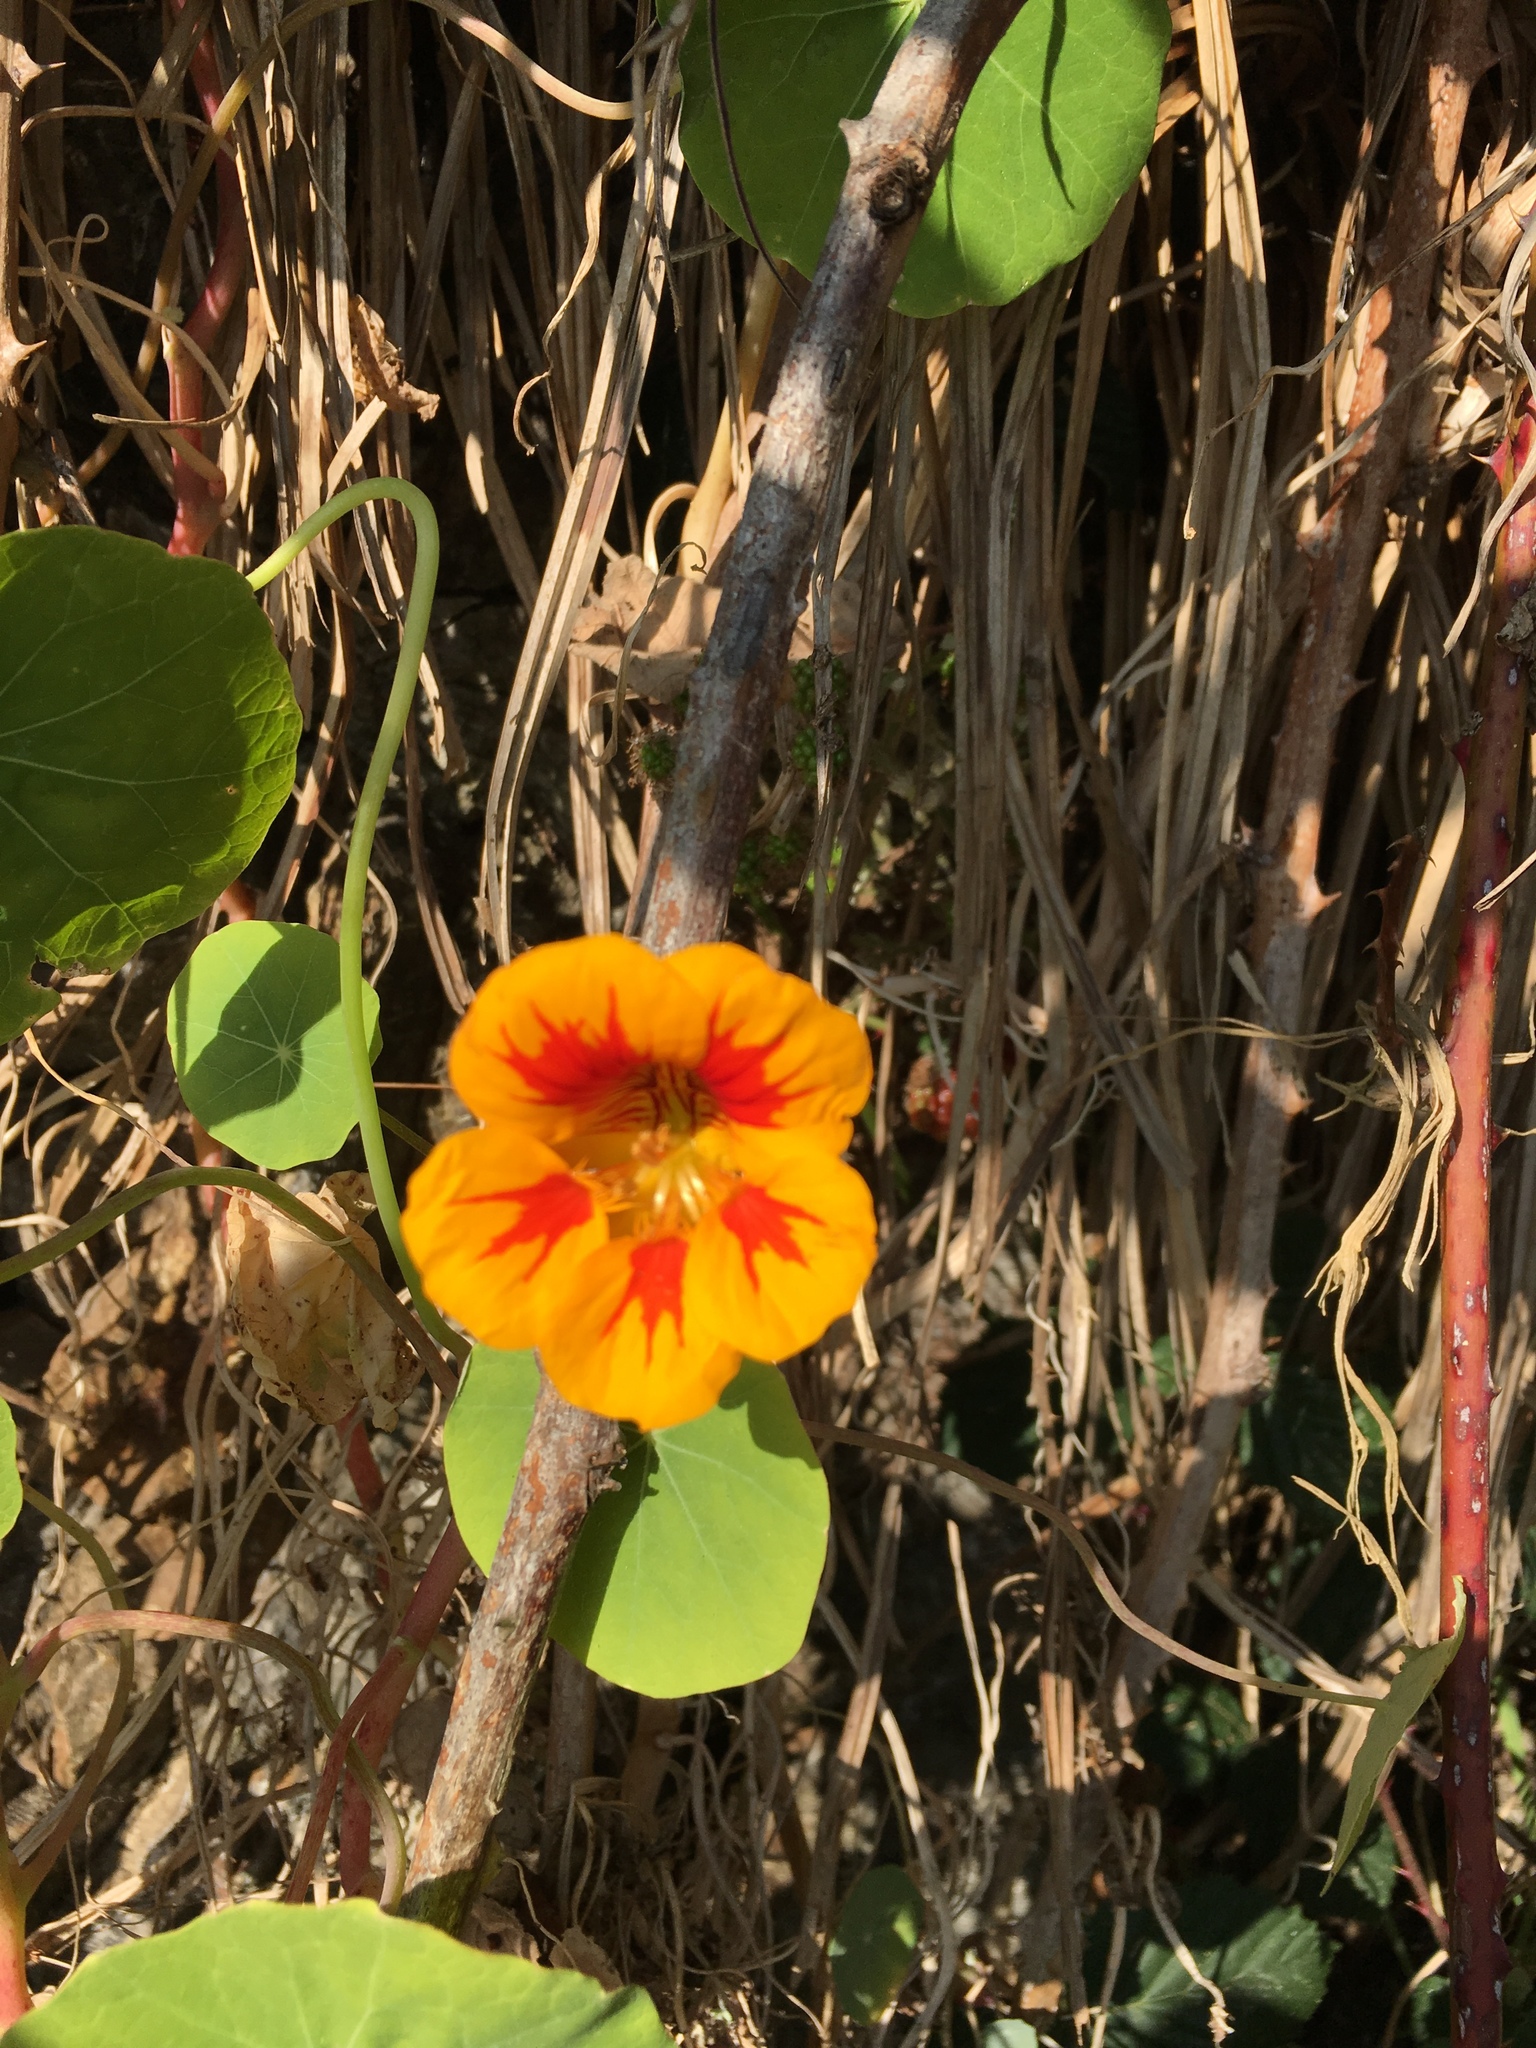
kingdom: Plantae
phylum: Tracheophyta
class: Magnoliopsida
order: Brassicales
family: Tropaeolaceae
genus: Tropaeolum
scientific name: Tropaeolum majus
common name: Nasturtium
